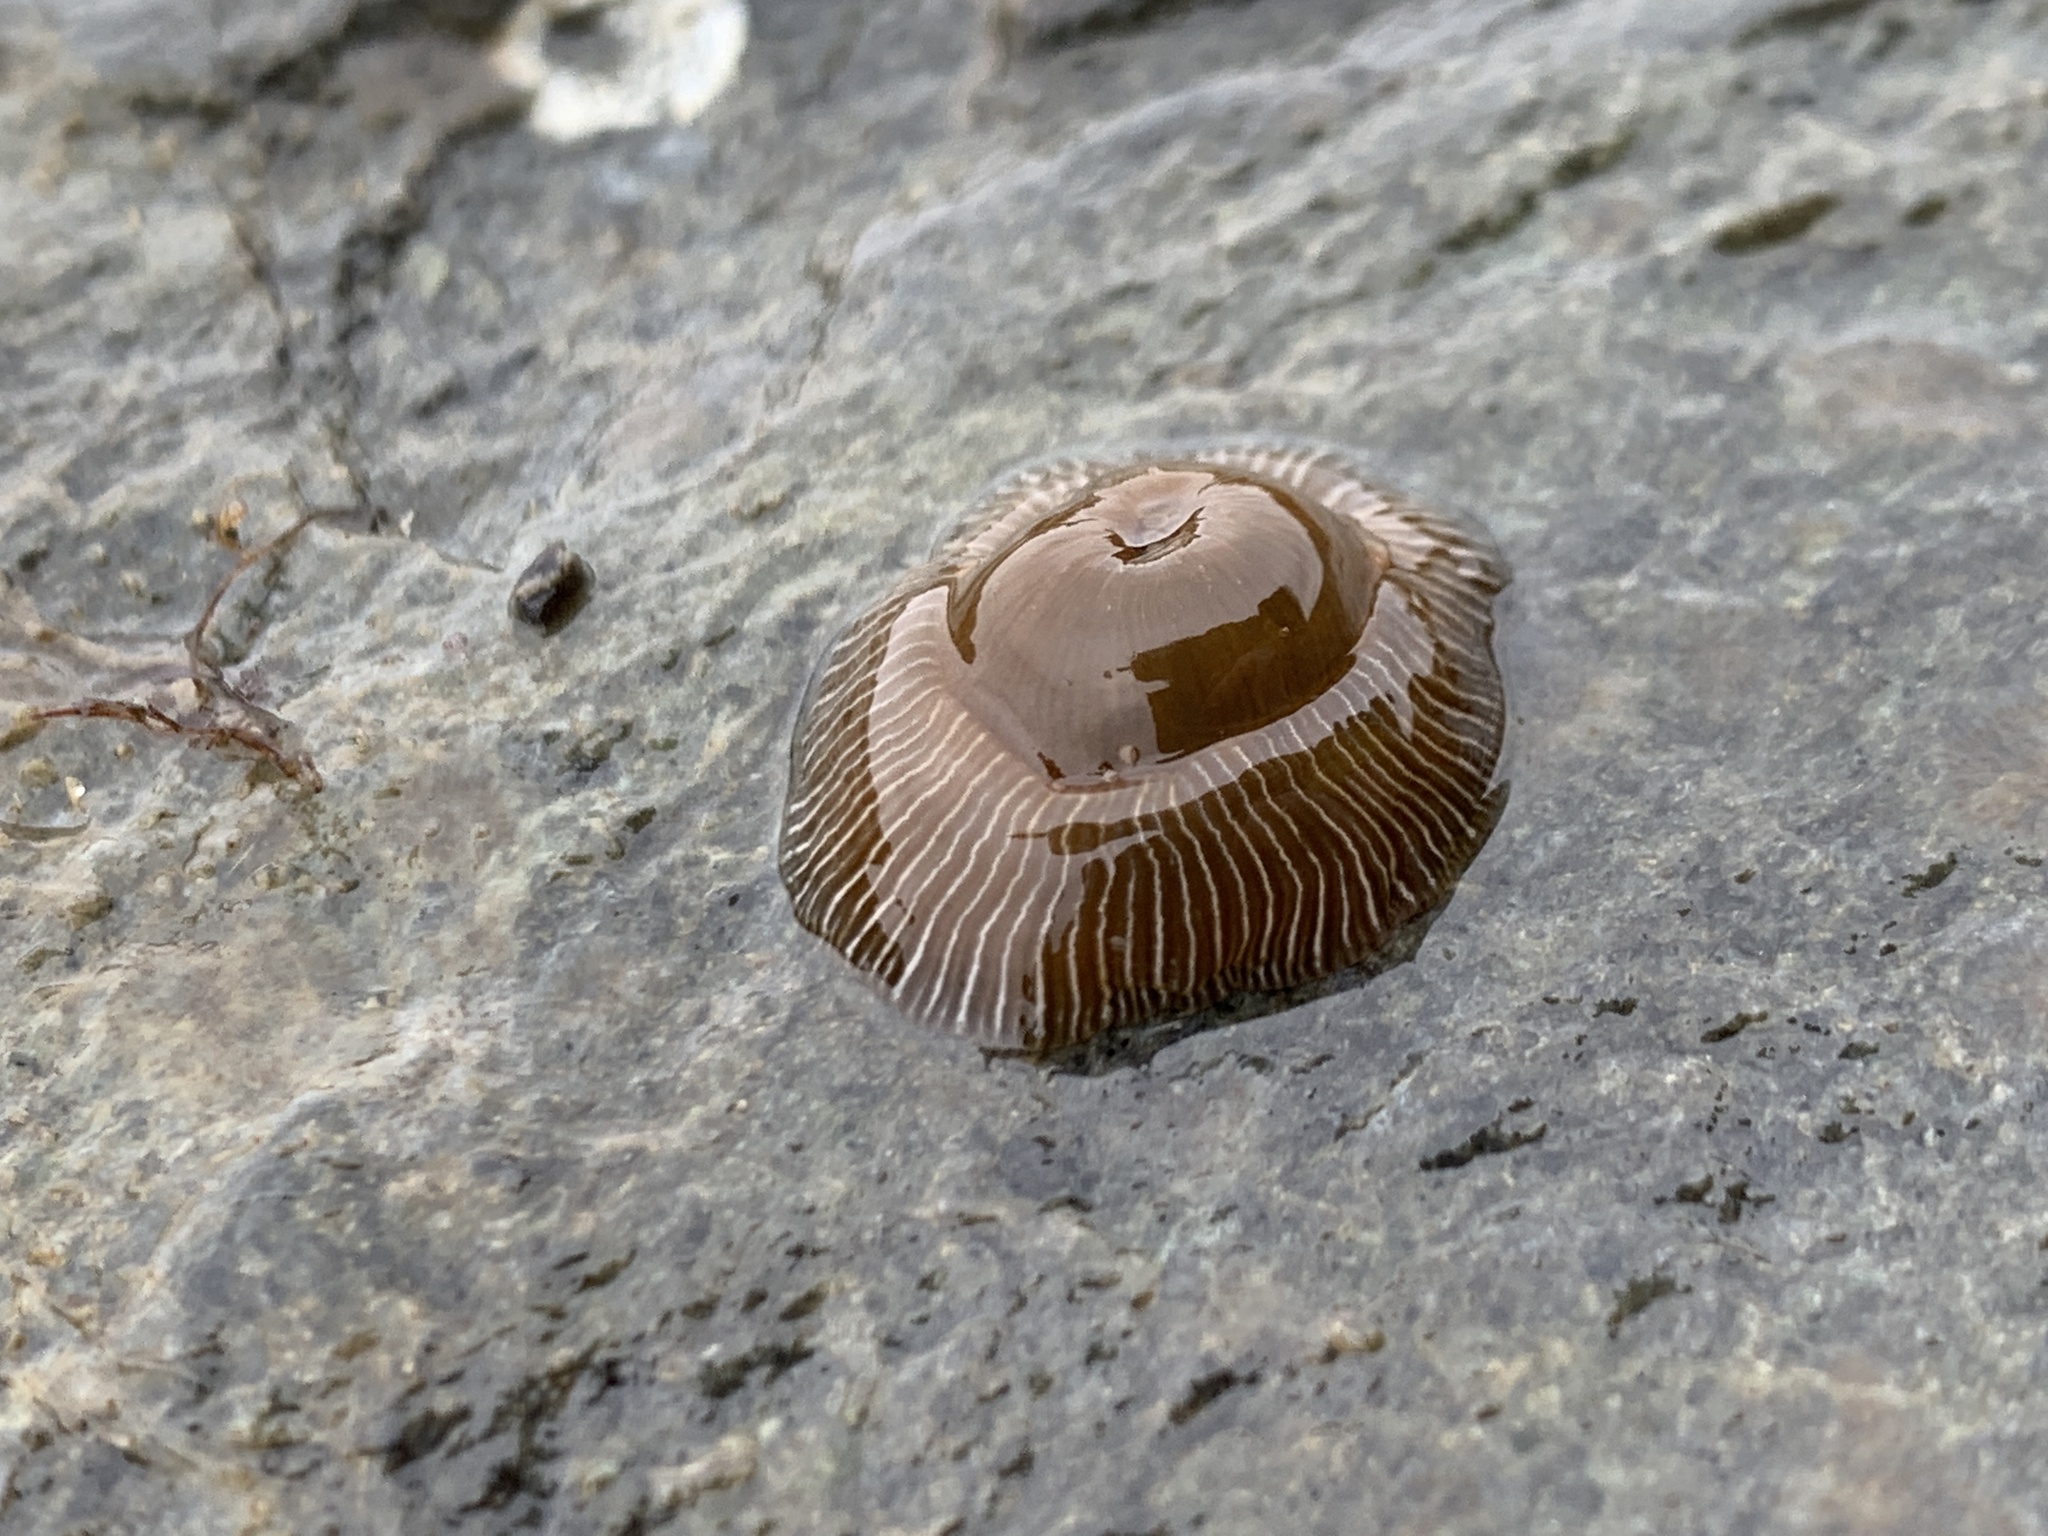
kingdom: Animalia
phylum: Cnidaria
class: Anthozoa
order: Actiniaria
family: Actiniidae
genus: Epiactis
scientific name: Epiactis prolifera
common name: Brooding anemone
